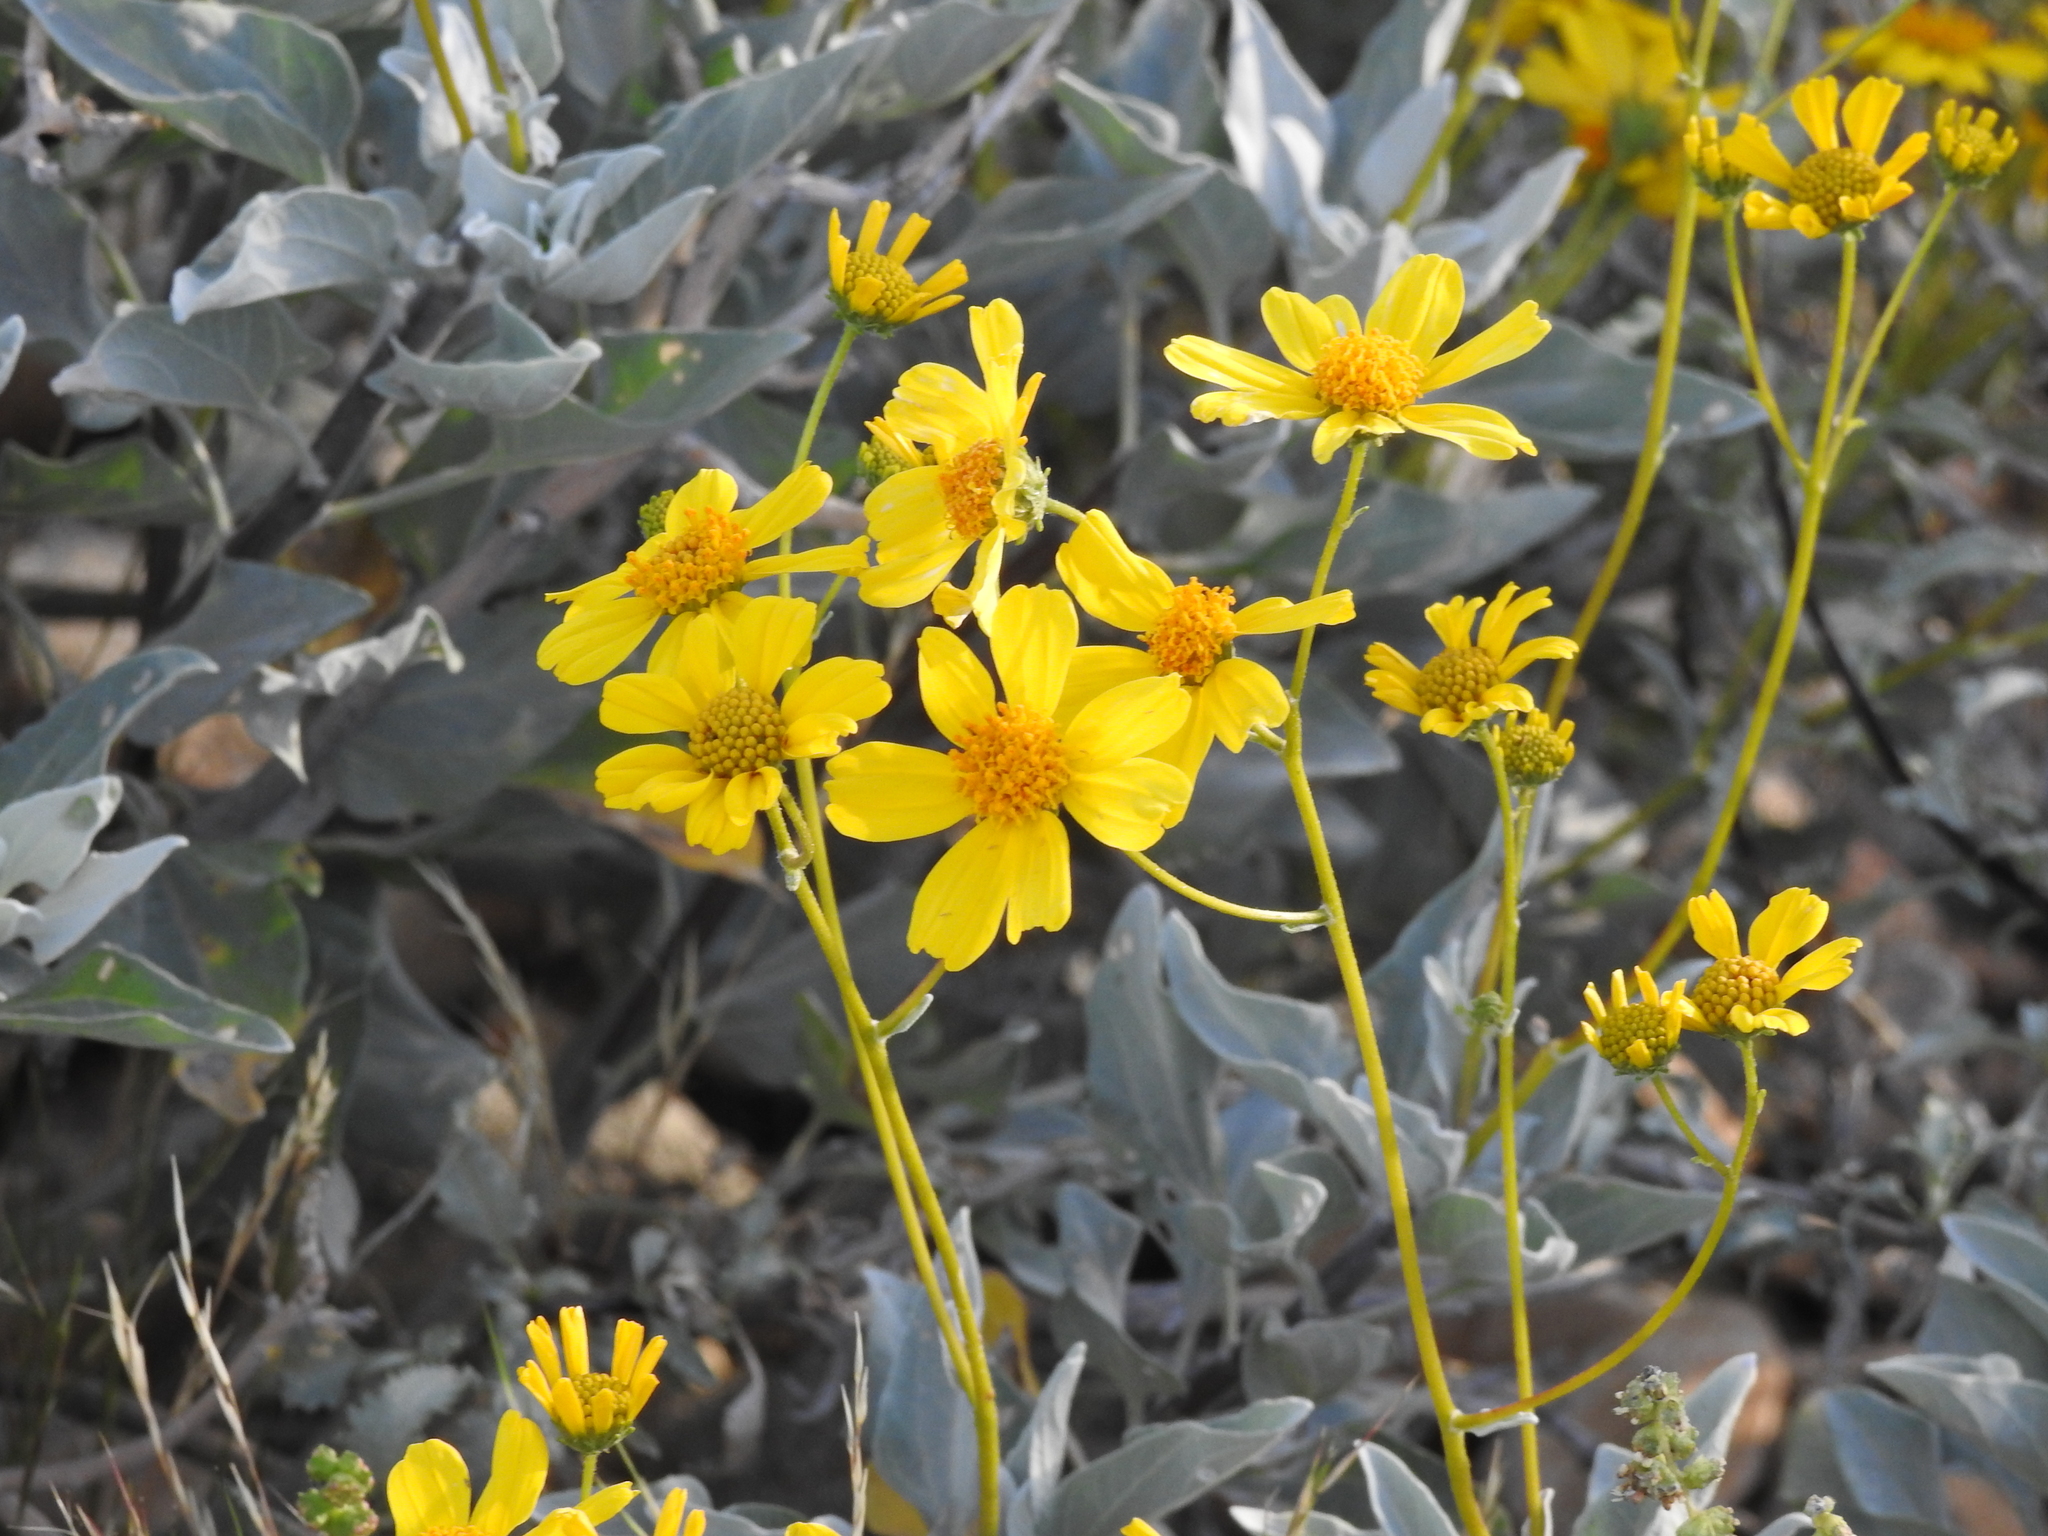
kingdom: Plantae
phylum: Tracheophyta
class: Magnoliopsida
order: Asterales
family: Asteraceae
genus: Encelia
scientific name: Encelia farinosa
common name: Brittlebush
